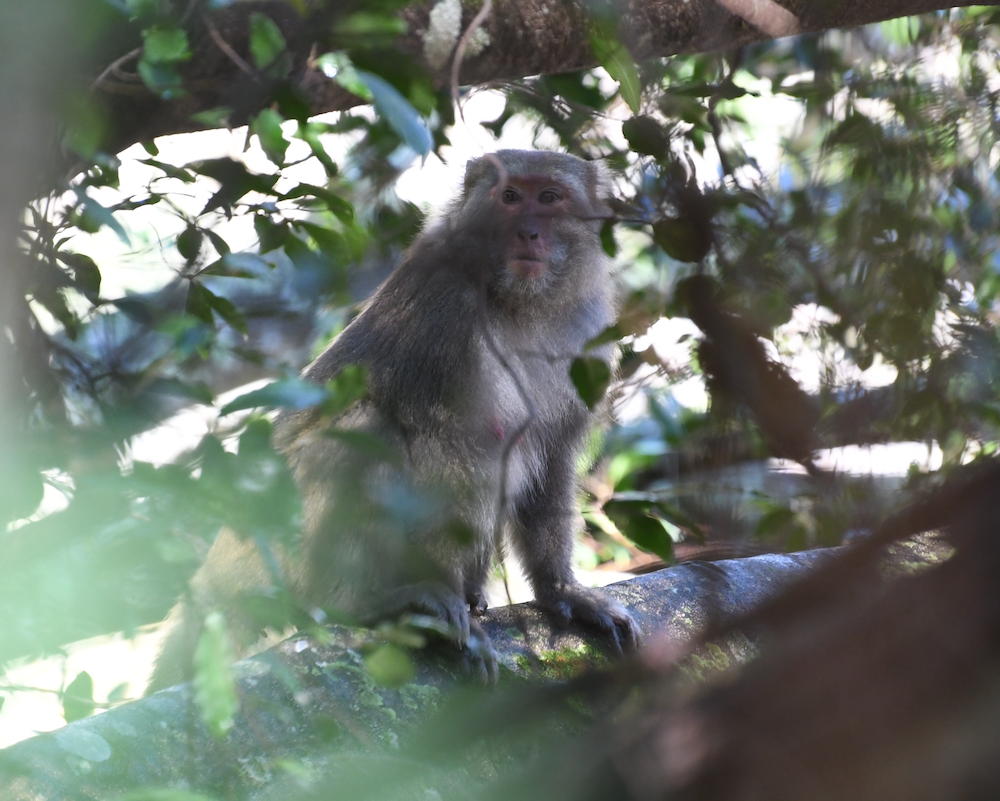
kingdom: Animalia
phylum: Chordata
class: Mammalia
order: Primates
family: Cercopithecidae
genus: Macaca
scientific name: Macaca cyclopis
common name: Formosan rock macaque
